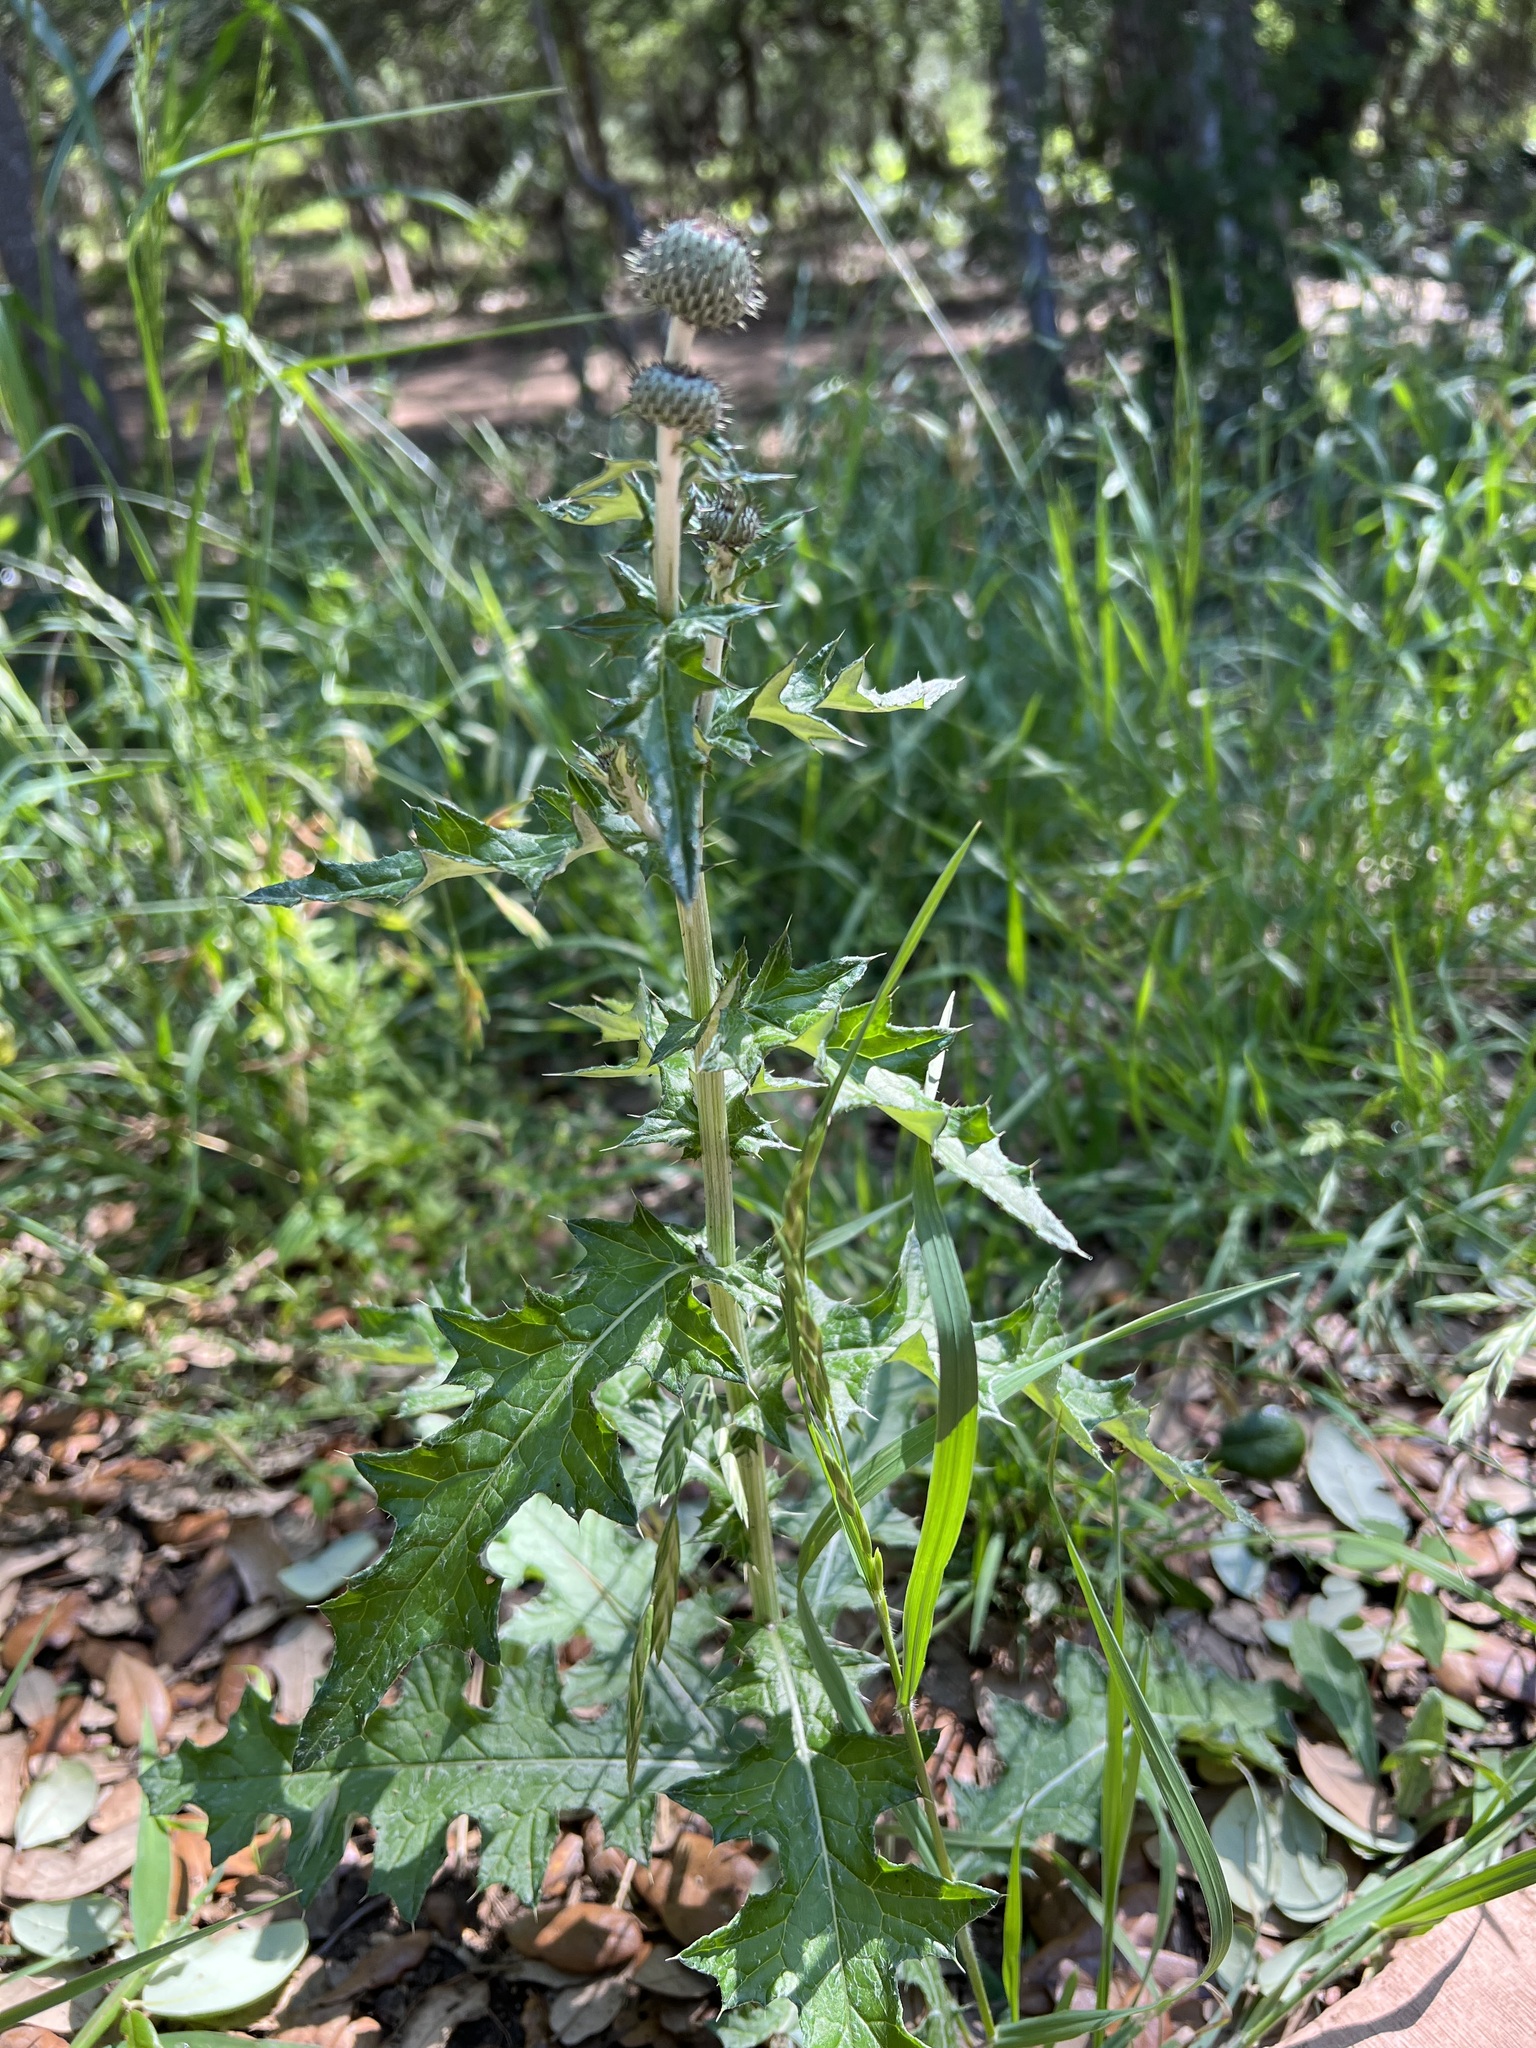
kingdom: Plantae
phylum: Tracheophyta
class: Magnoliopsida
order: Asterales
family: Asteraceae
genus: Cirsium
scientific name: Cirsium texanum
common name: Texas purple thistle
